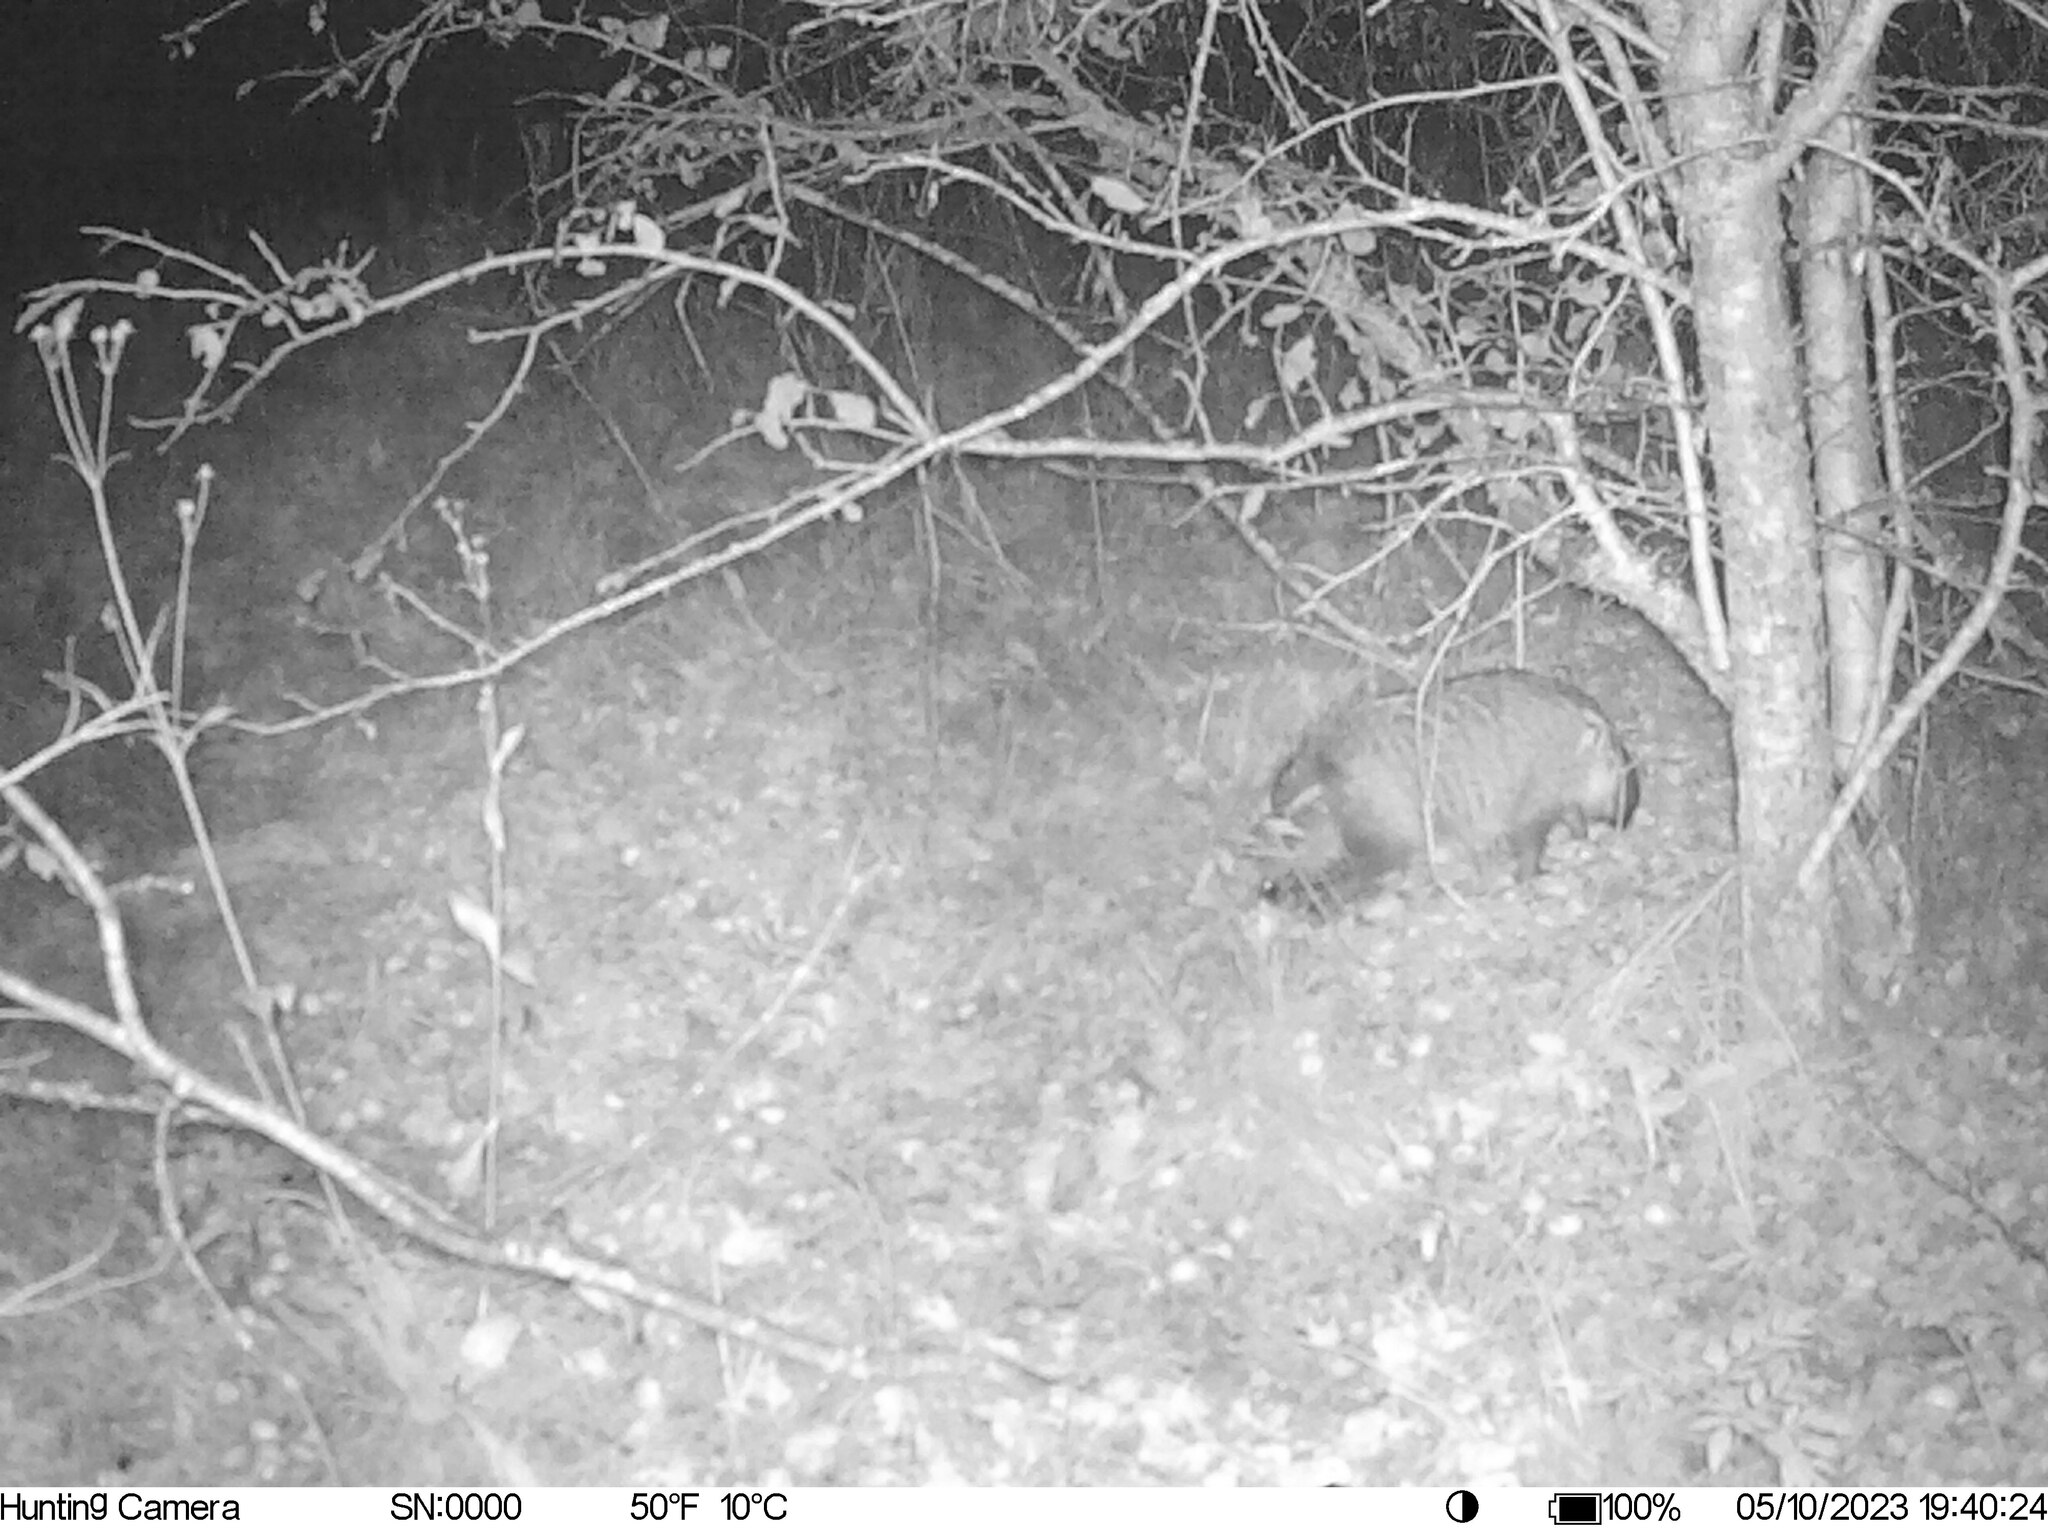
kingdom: Animalia
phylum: Chordata
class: Mammalia
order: Carnivora
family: Canidae
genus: Nyctereutes
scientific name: Nyctereutes procyonoides
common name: Raccoon dog
